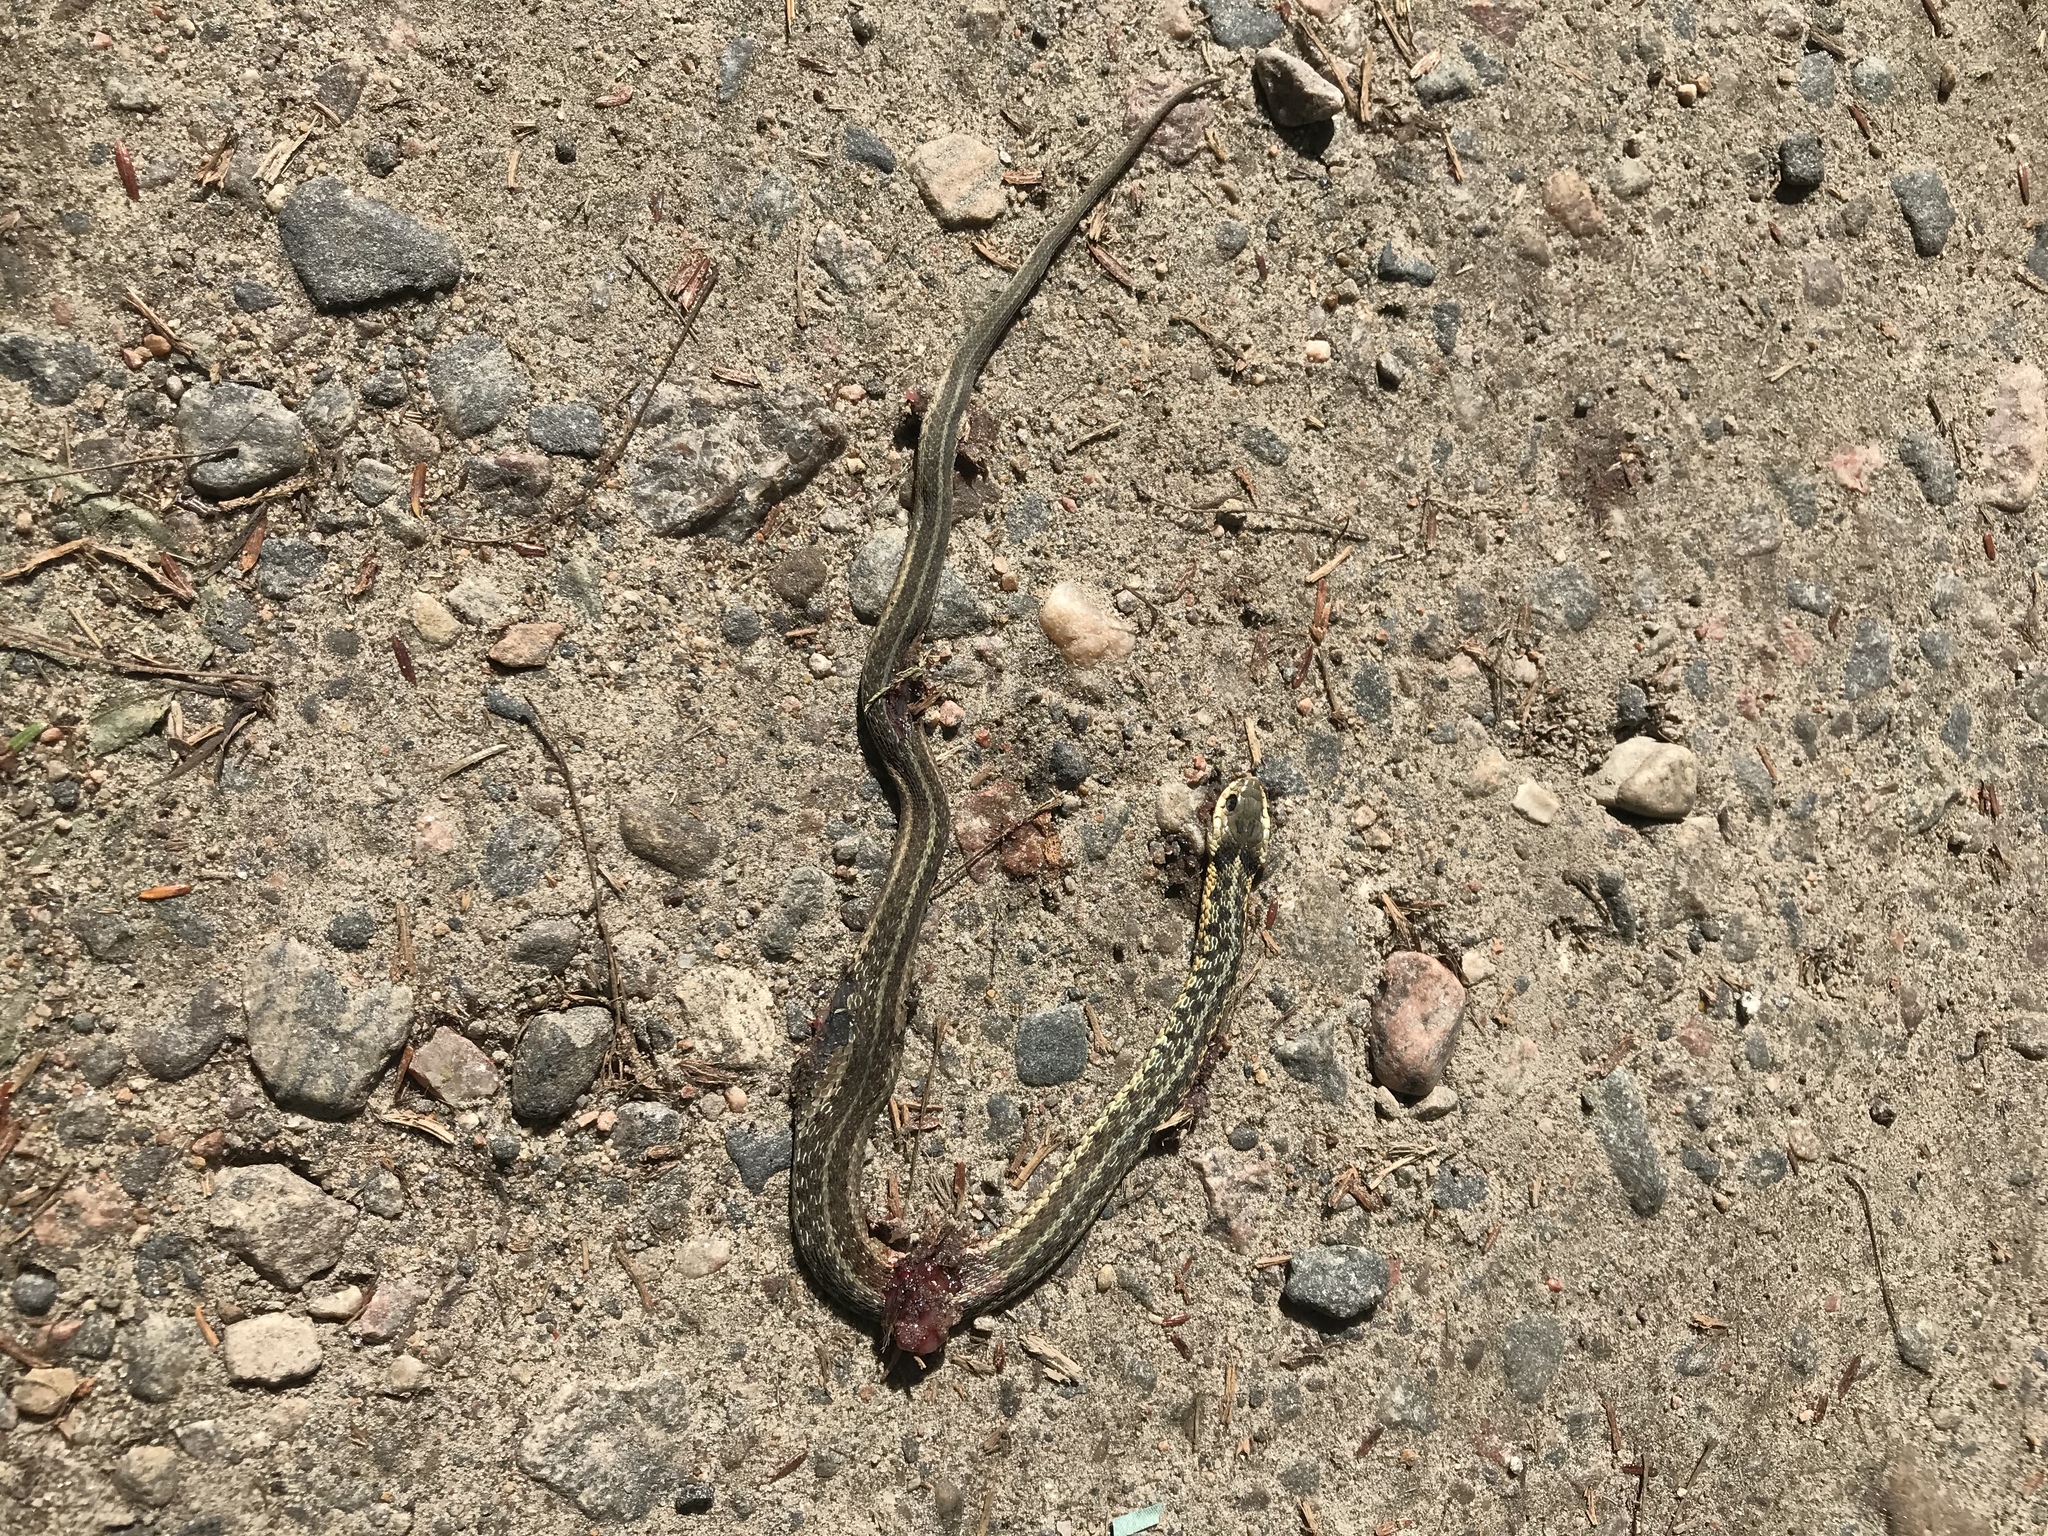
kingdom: Animalia
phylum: Chordata
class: Squamata
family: Colubridae
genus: Thamnophis
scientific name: Thamnophis sirtalis
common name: Common garter snake
